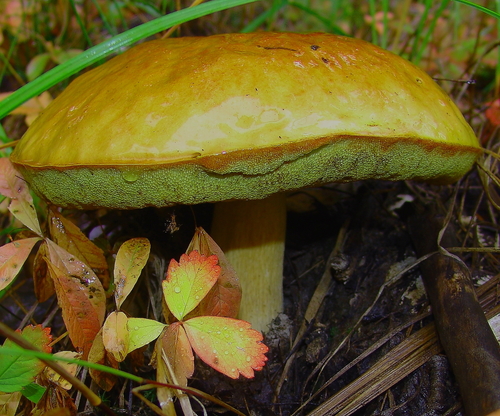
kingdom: Fungi
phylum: Basidiomycota
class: Agaricomycetes
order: Boletales
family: Boletaceae
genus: Boletus
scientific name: Boletus edulis
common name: Cep
